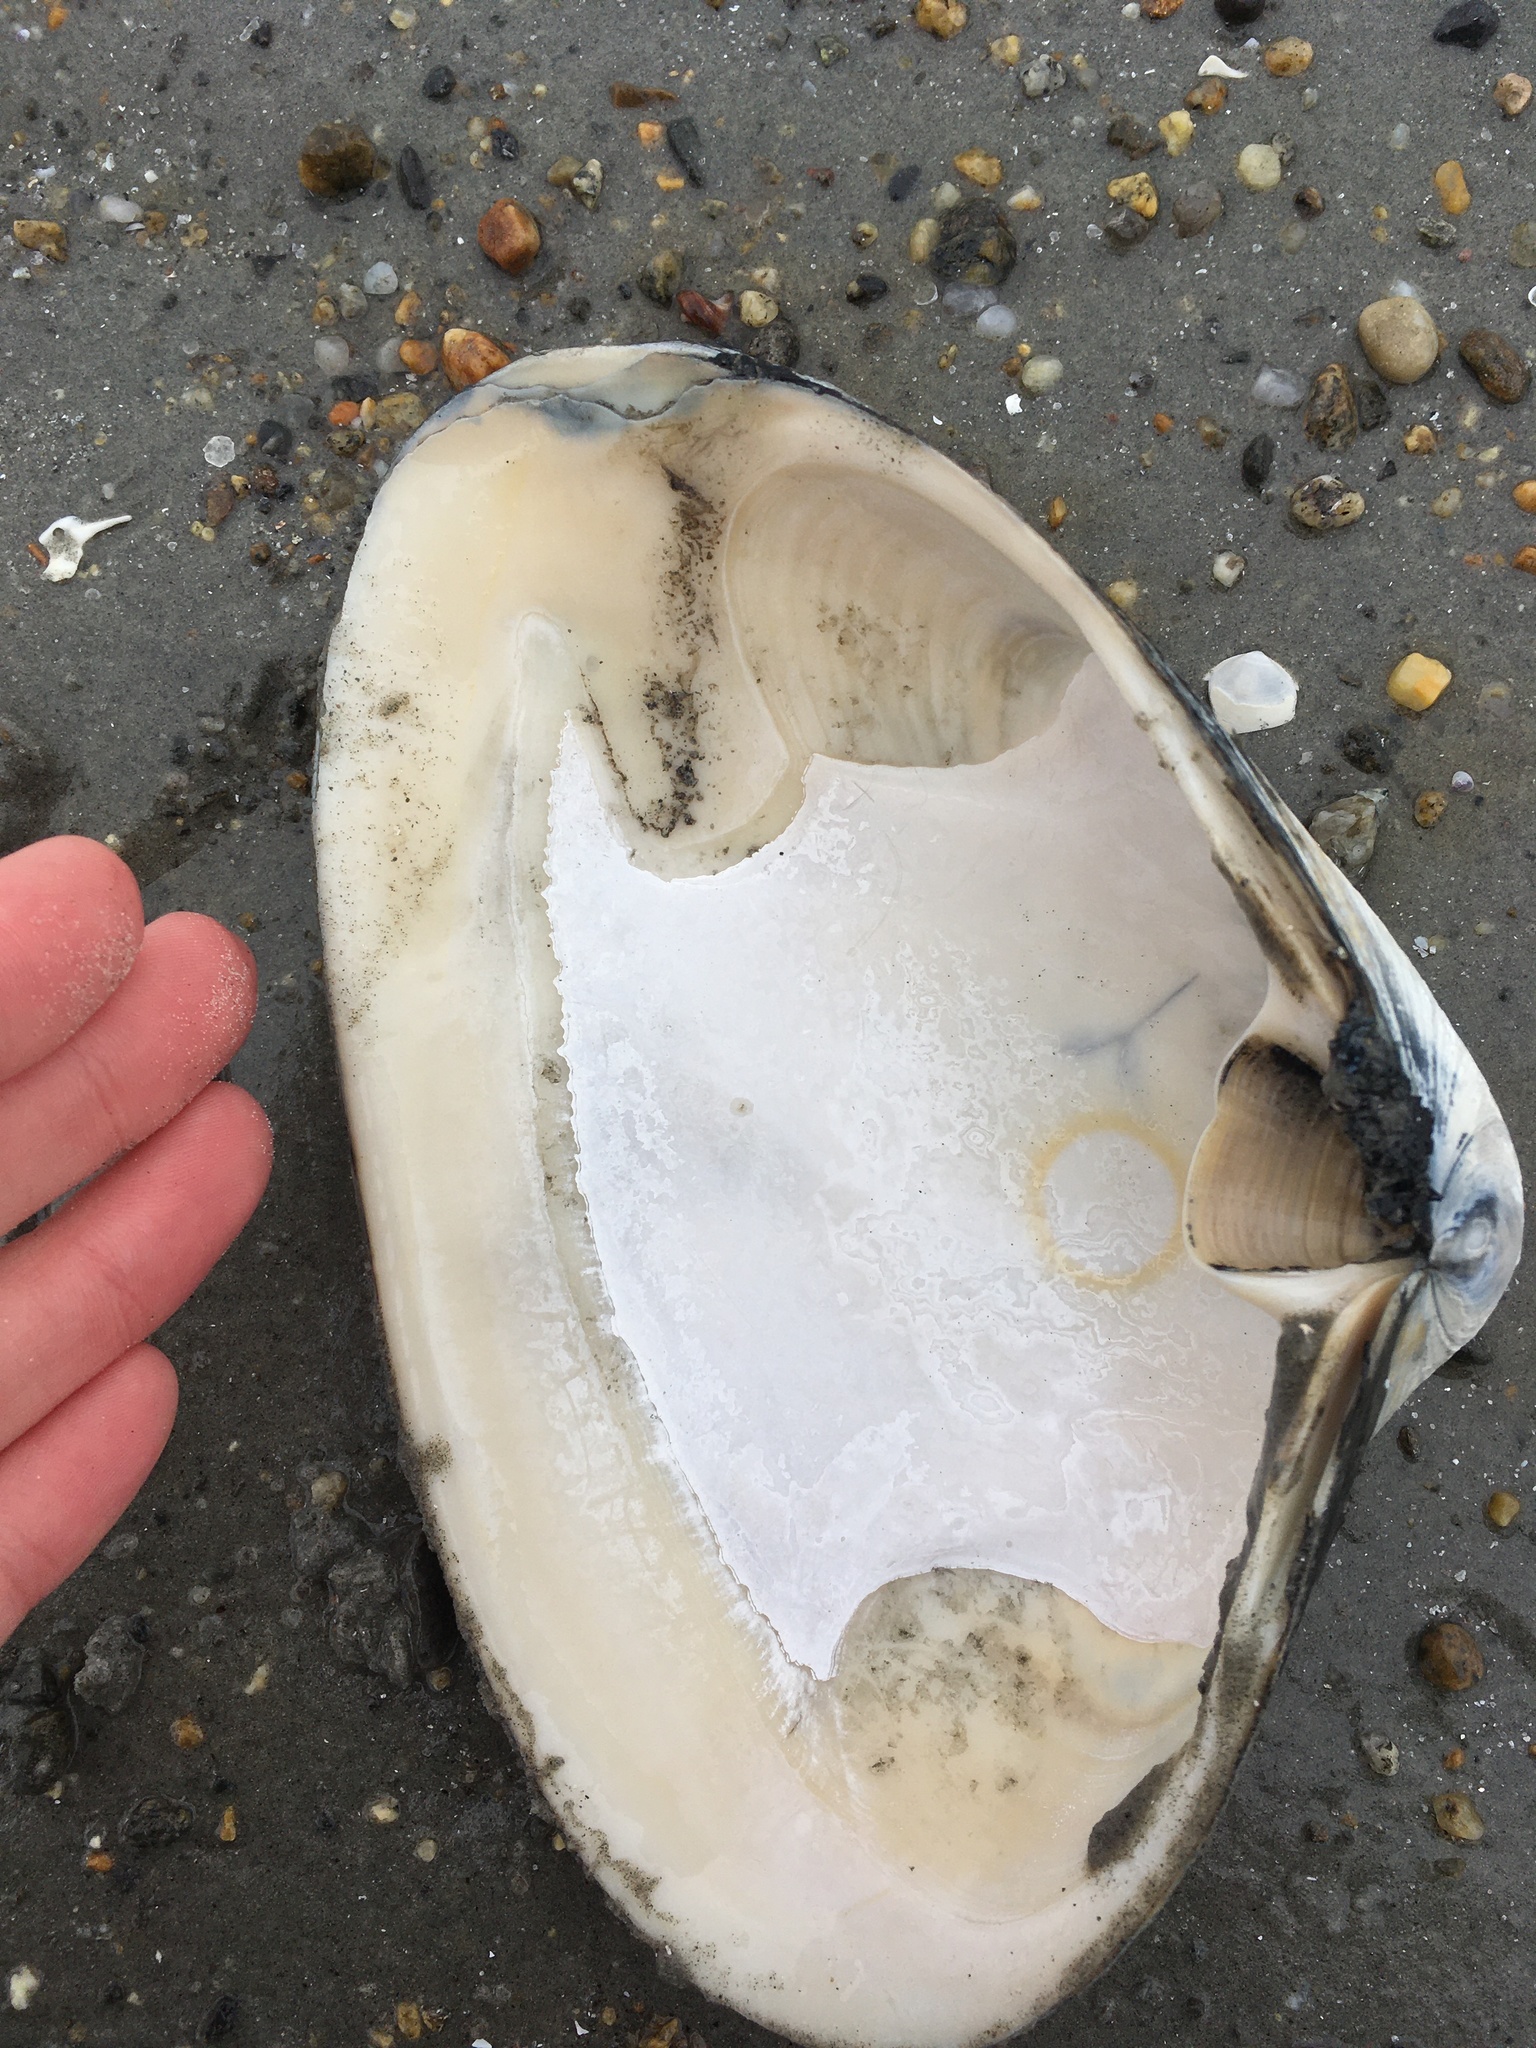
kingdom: Animalia
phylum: Mollusca
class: Bivalvia
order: Venerida
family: Mactridae
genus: Spisula
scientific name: Spisula solidissima
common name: Atlantic surf clam
